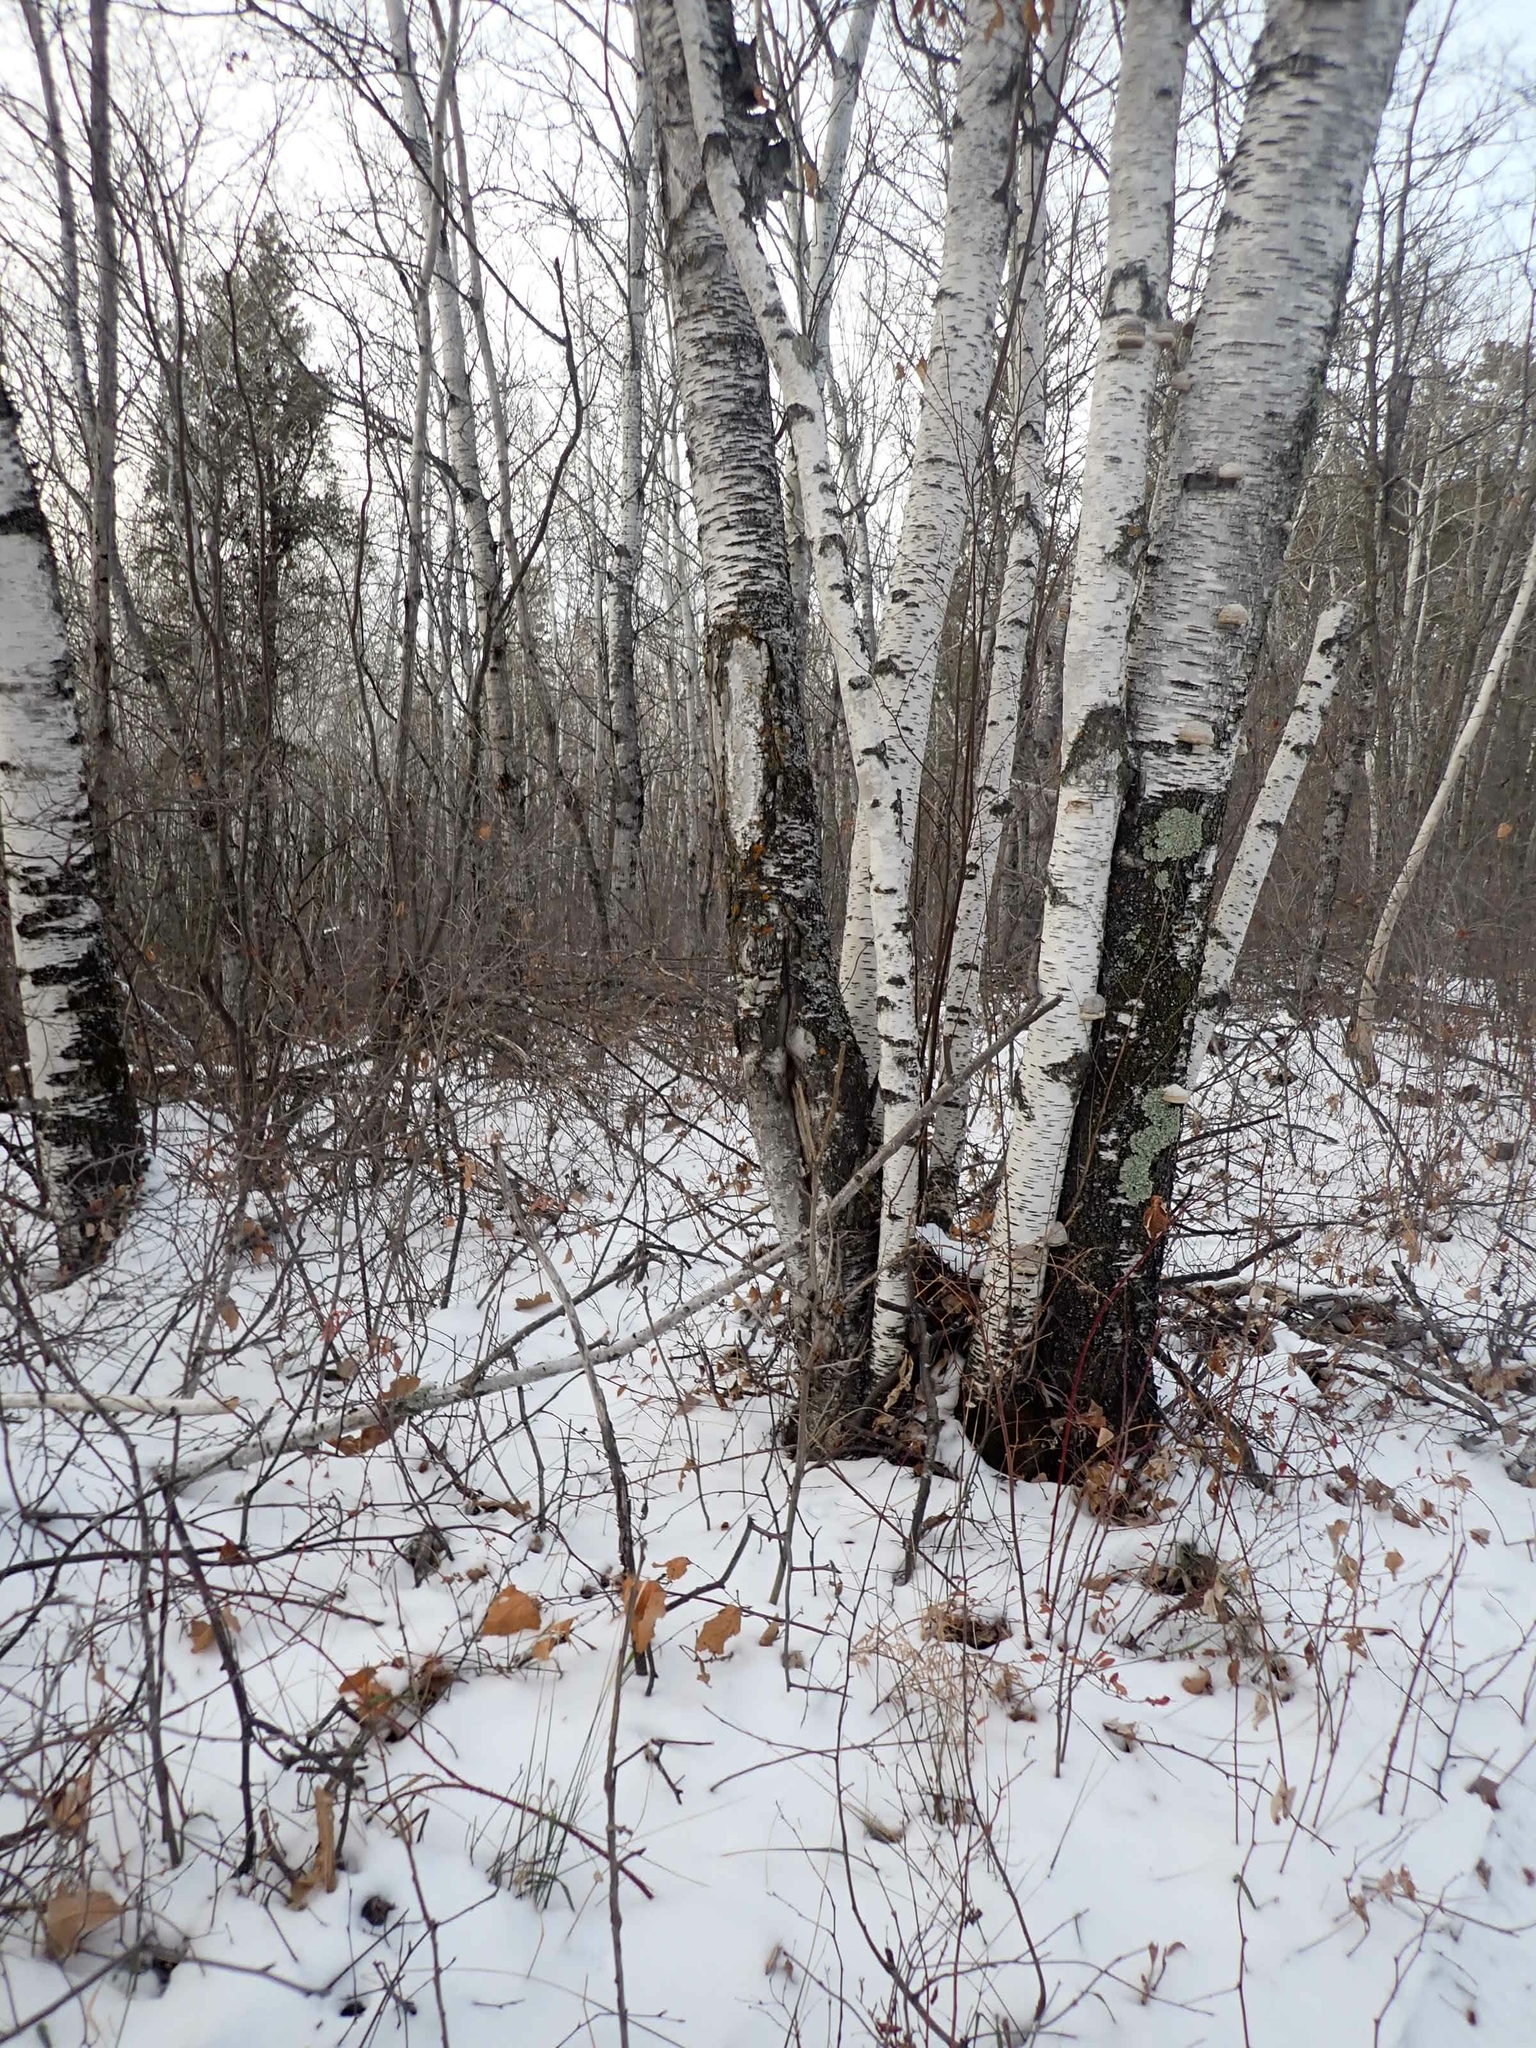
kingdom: Plantae
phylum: Tracheophyta
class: Magnoliopsida
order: Fagales
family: Betulaceae
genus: Betula
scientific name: Betula papyrifera
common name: Paper birch
